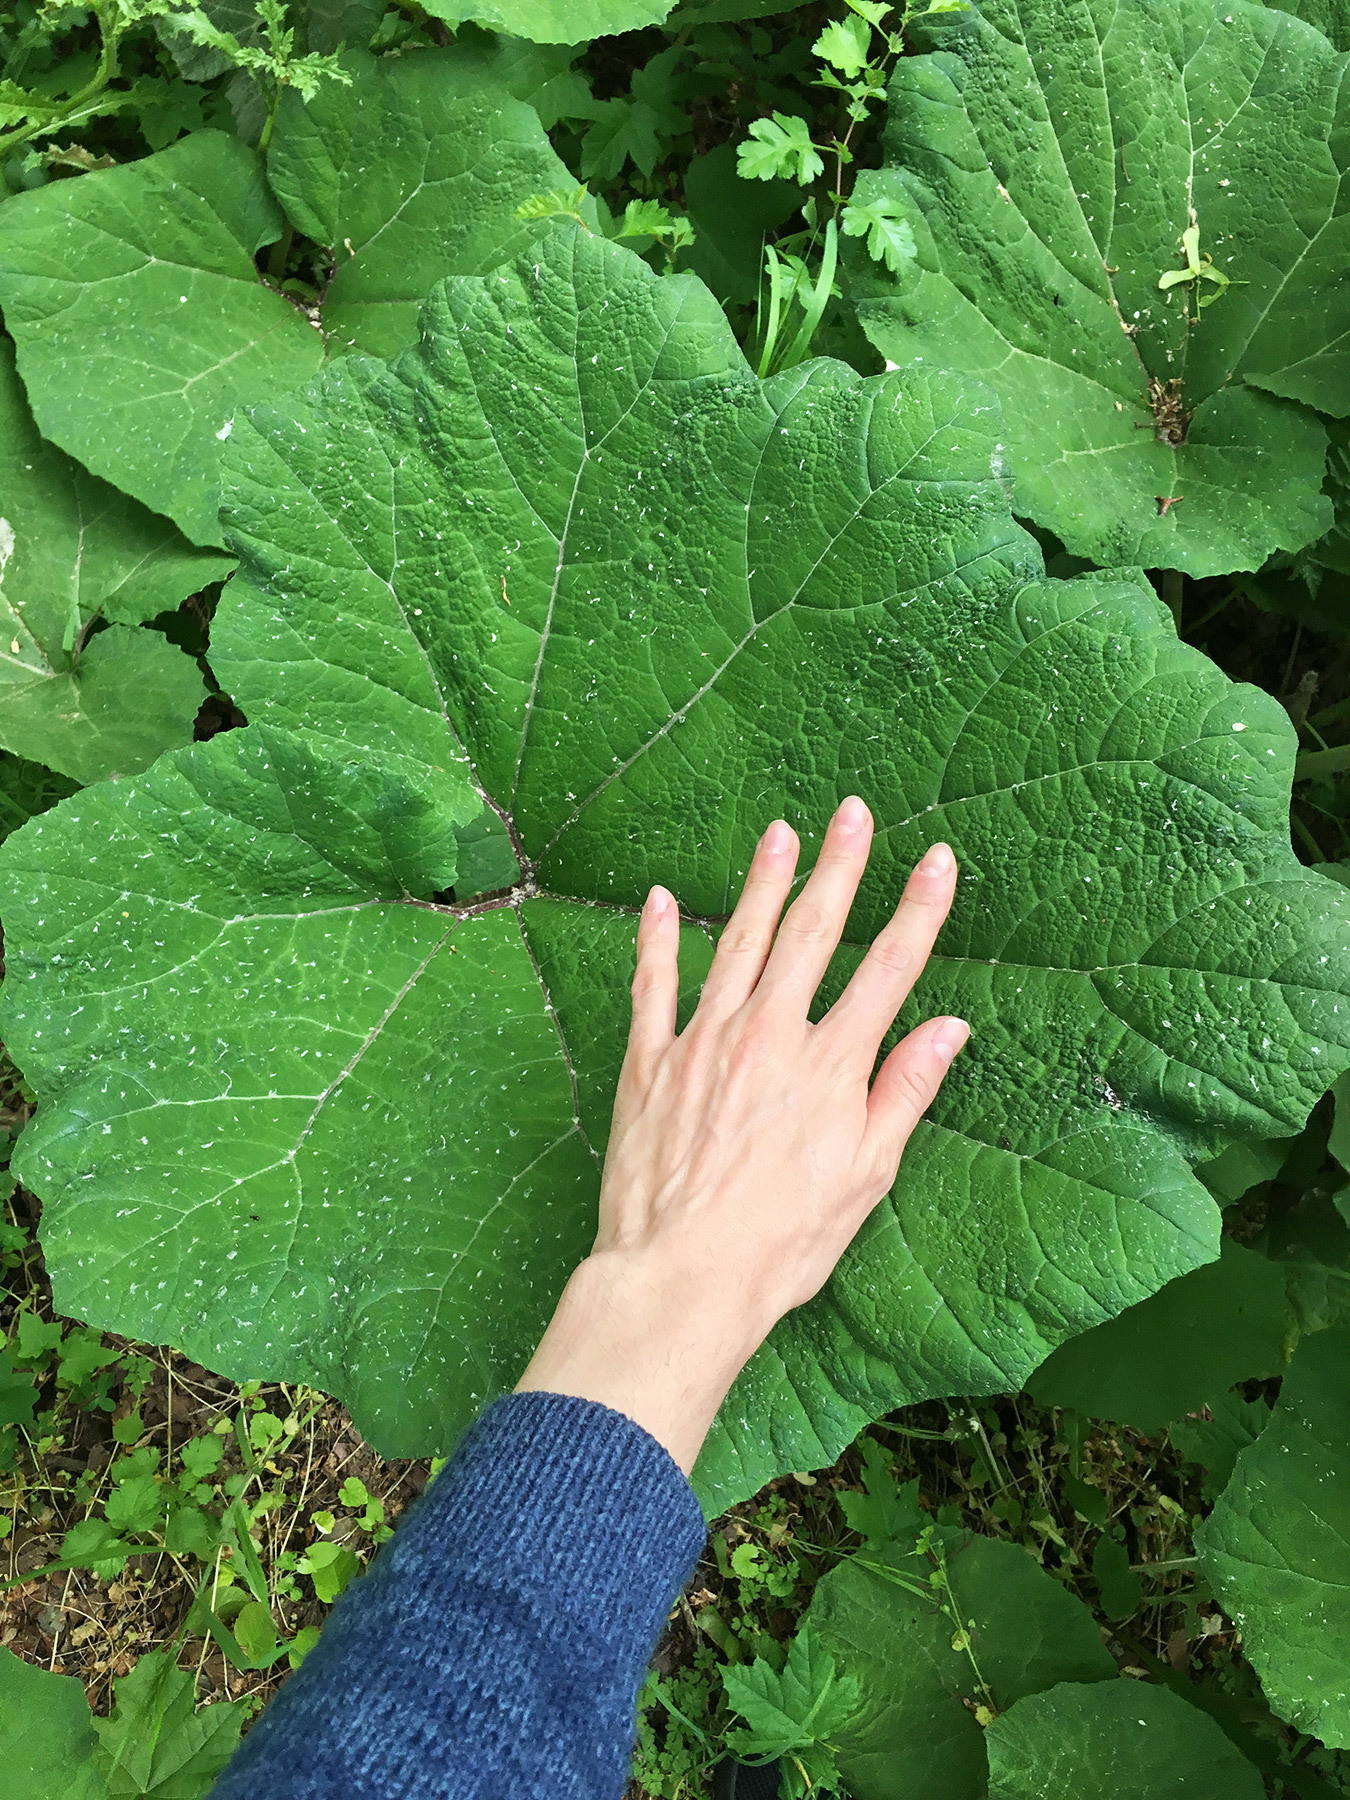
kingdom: Plantae
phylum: Tracheophyta
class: Magnoliopsida
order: Asterales
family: Asteraceae
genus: Petasites
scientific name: Petasites hybridus
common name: Butterbur
